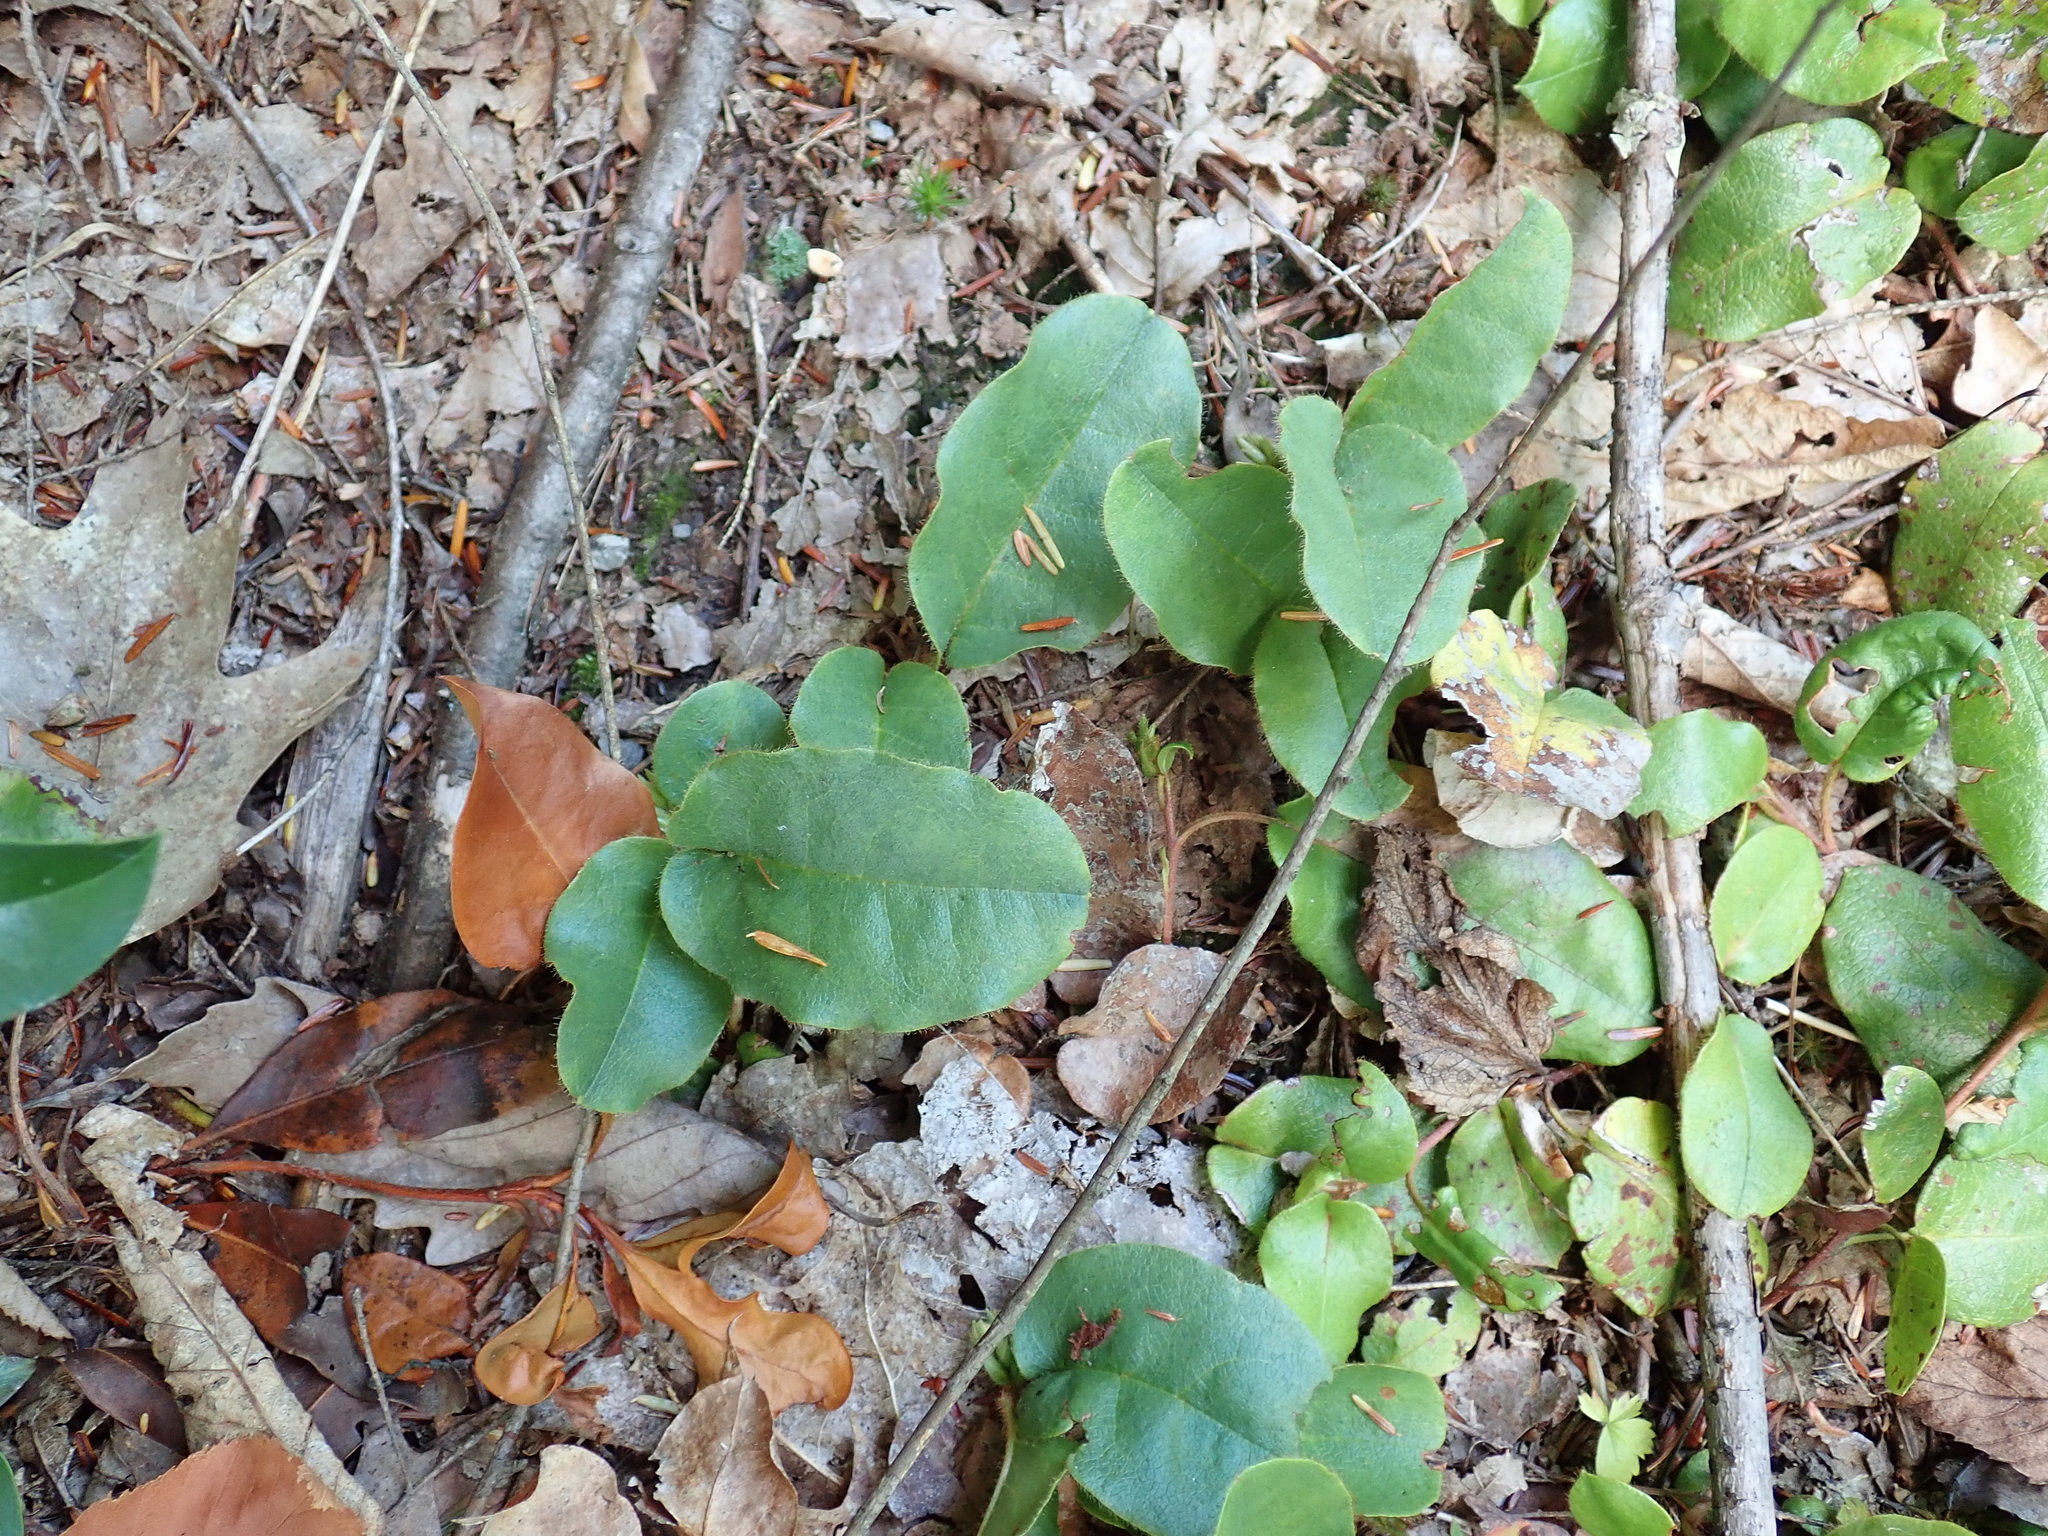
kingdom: Plantae
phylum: Tracheophyta
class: Magnoliopsida
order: Ericales
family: Ericaceae
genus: Epigaea
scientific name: Epigaea repens
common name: Gravelroot
